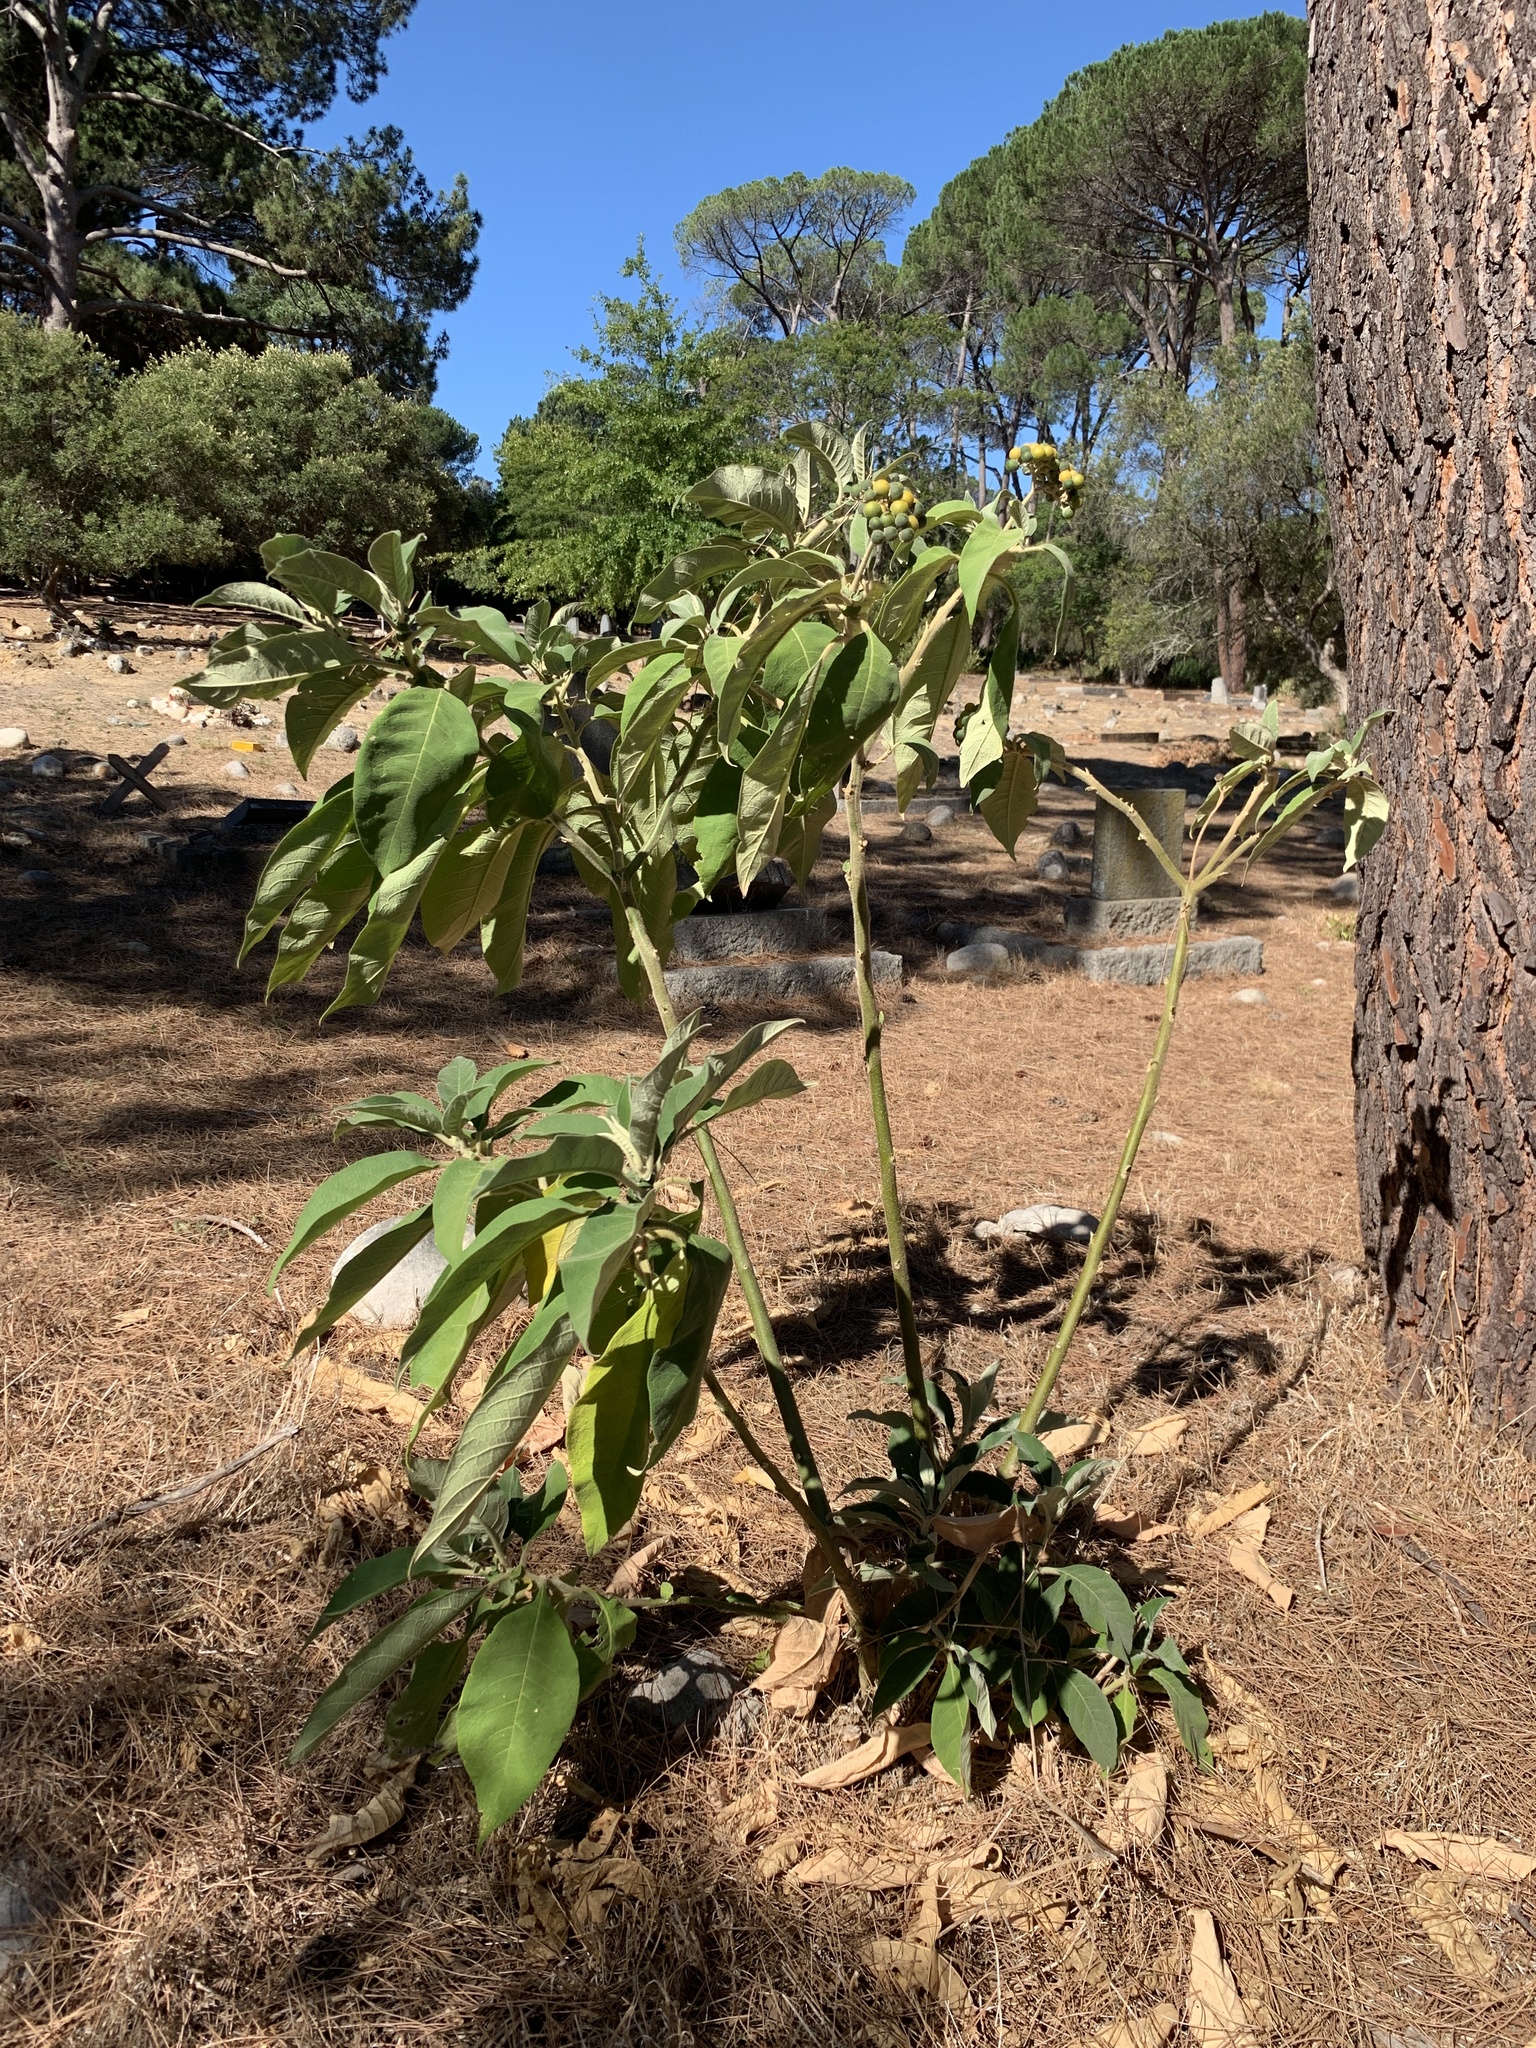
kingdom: Plantae
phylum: Tracheophyta
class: Magnoliopsida
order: Solanales
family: Solanaceae
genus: Solanum
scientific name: Solanum mauritianum
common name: Earleaf nightshade
